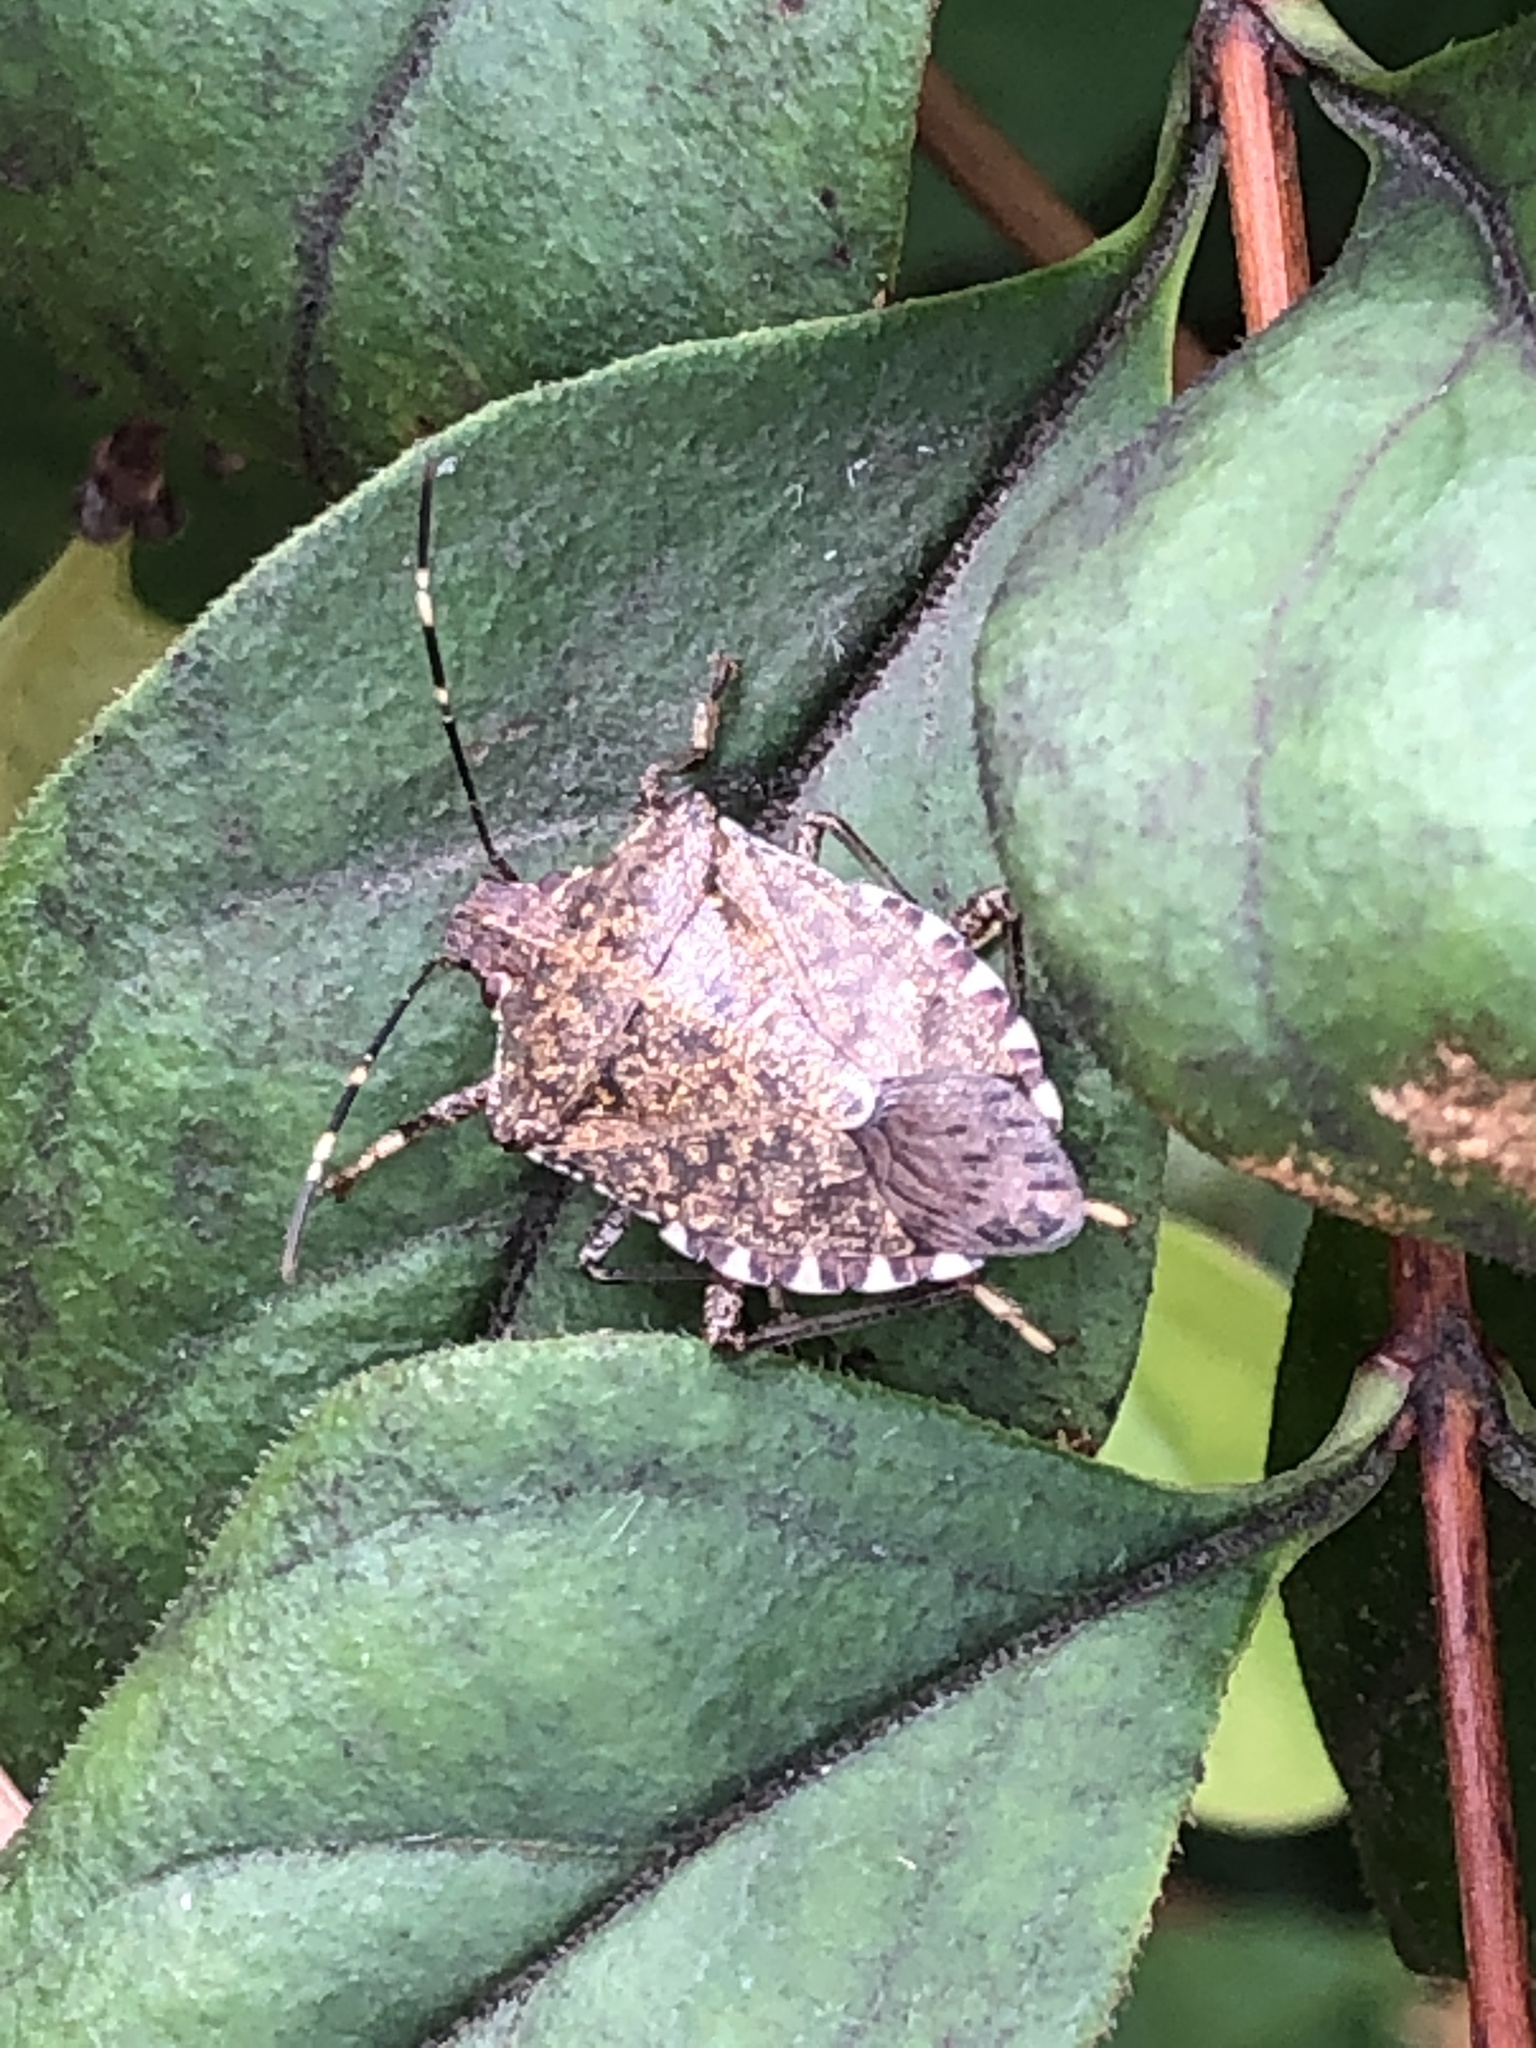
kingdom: Animalia
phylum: Arthropoda
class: Insecta
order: Hemiptera
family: Pentatomidae
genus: Halyomorpha
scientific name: Halyomorpha halys
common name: Brown marmorated stink bug
